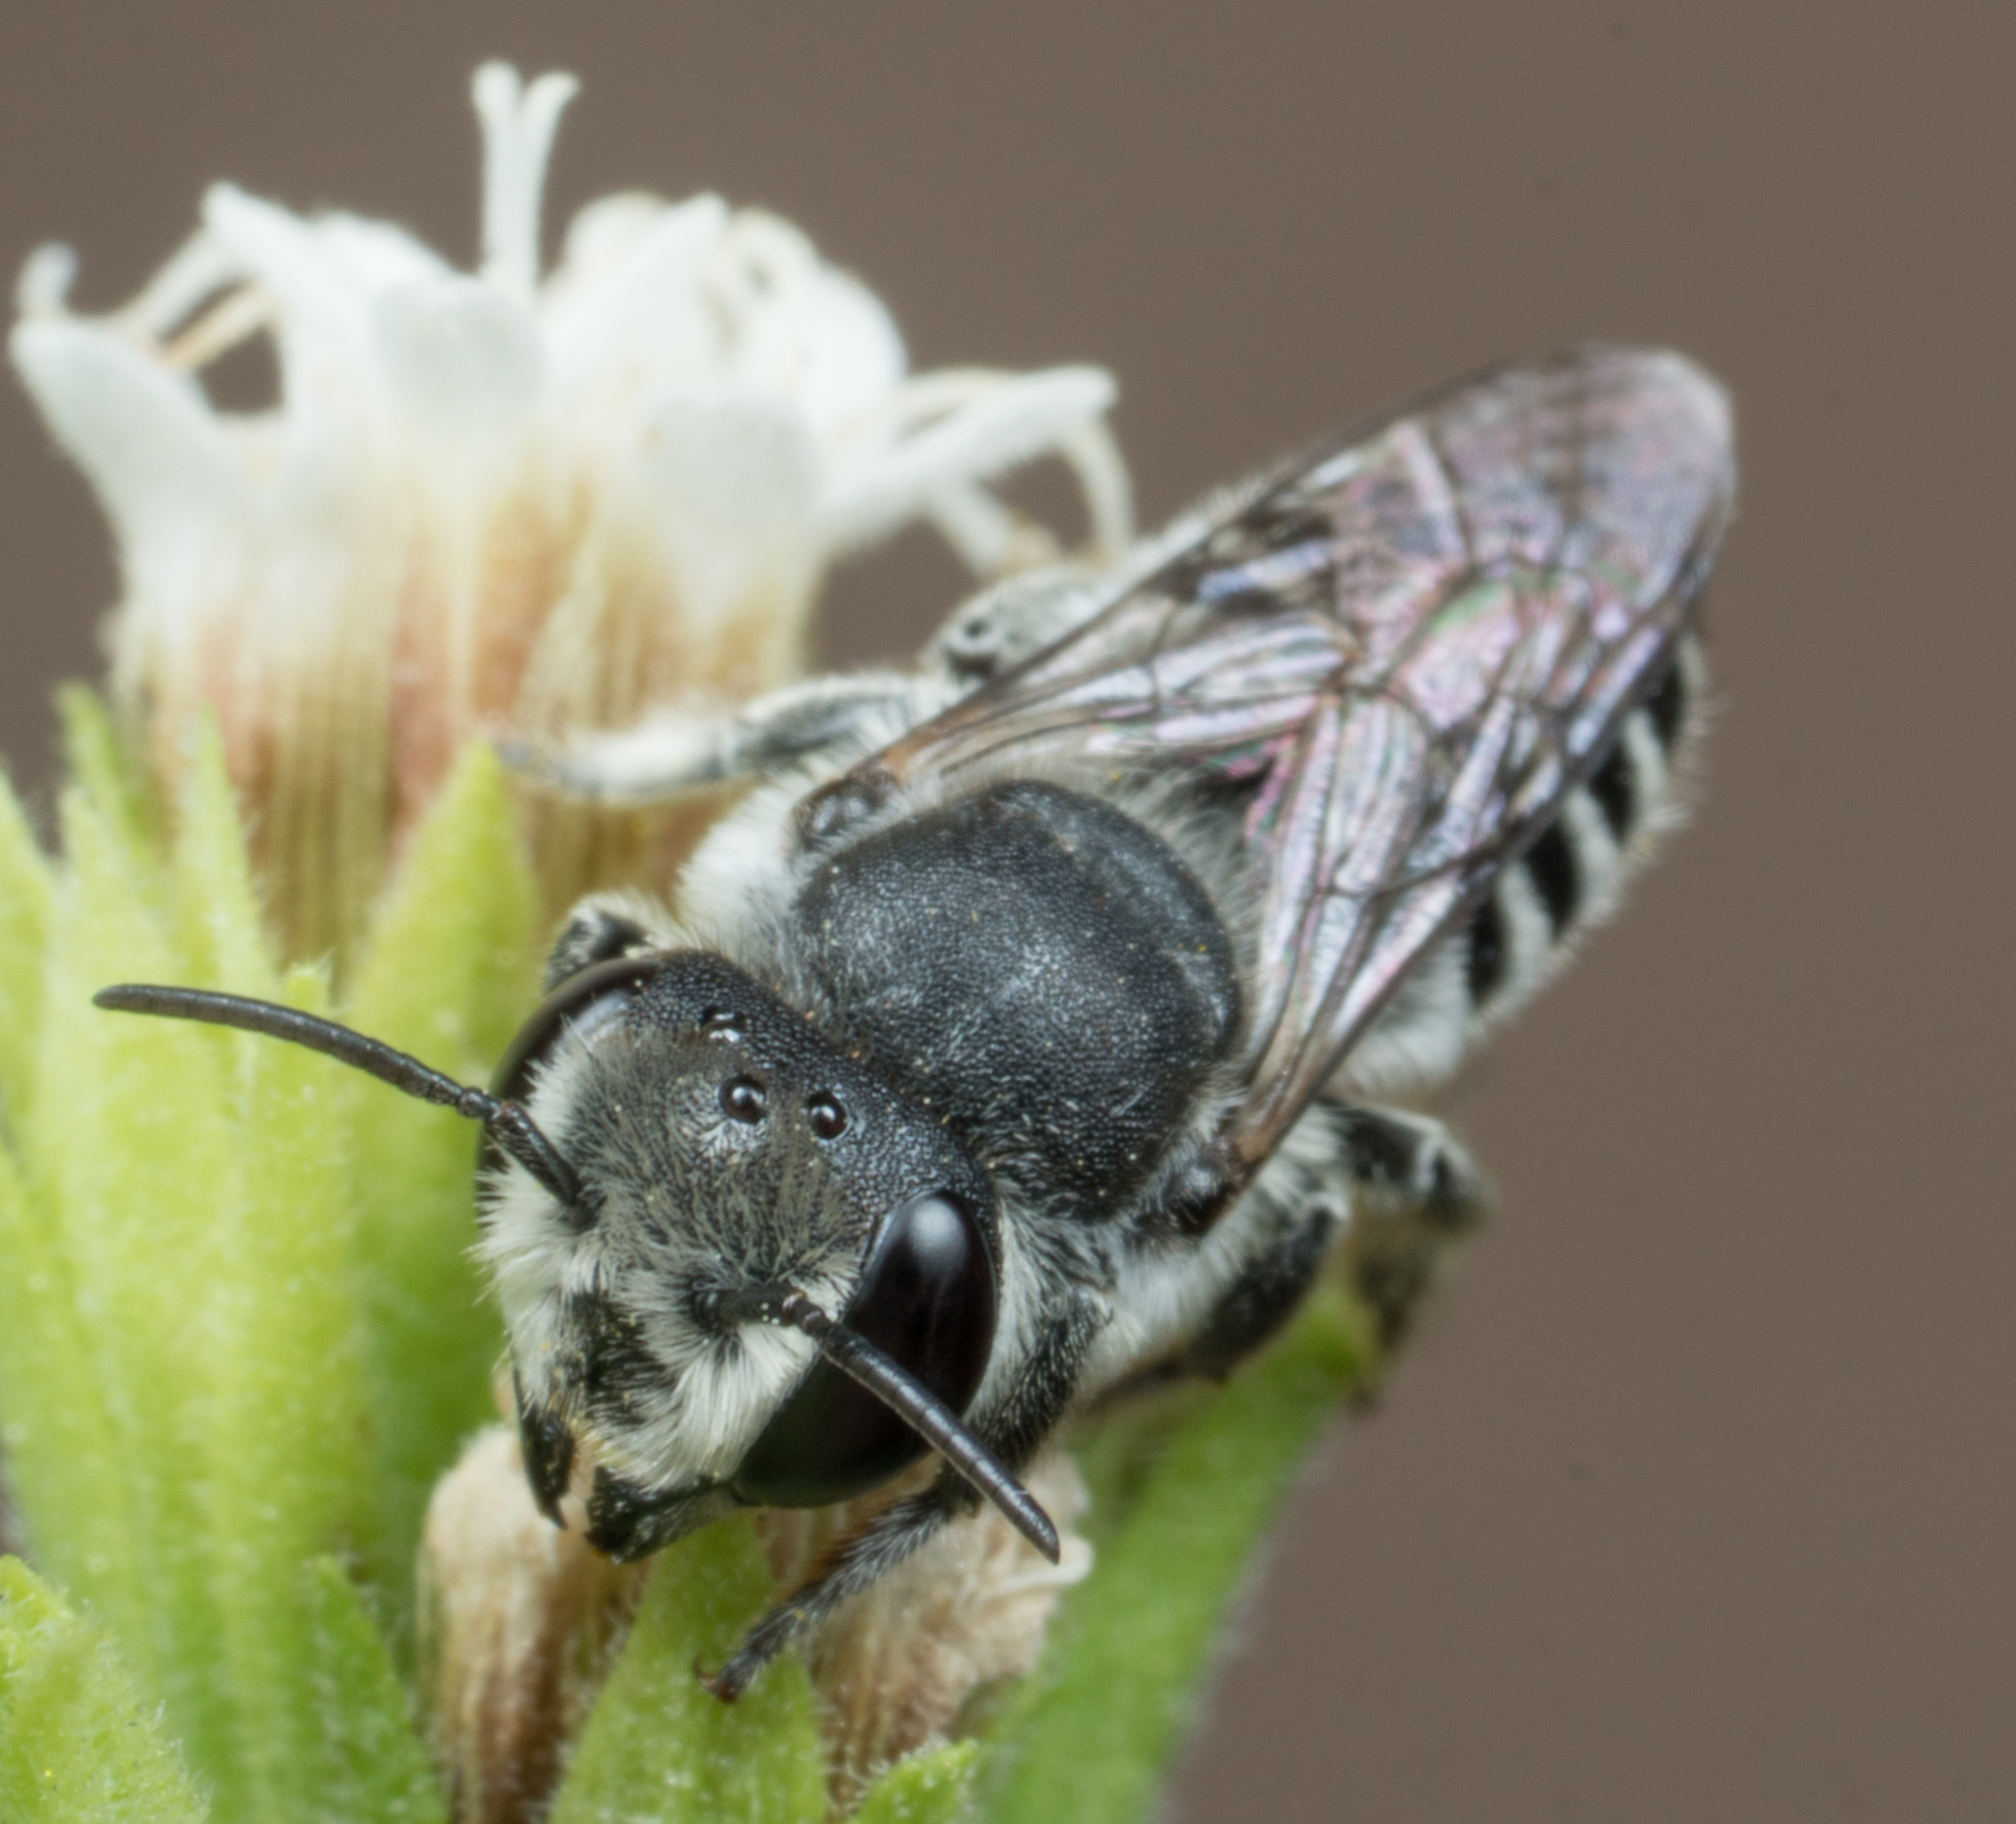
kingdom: Animalia
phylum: Arthropoda
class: Insecta
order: Hymenoptera
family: Megachilidae
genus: Megachile
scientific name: Megachile pusilla
